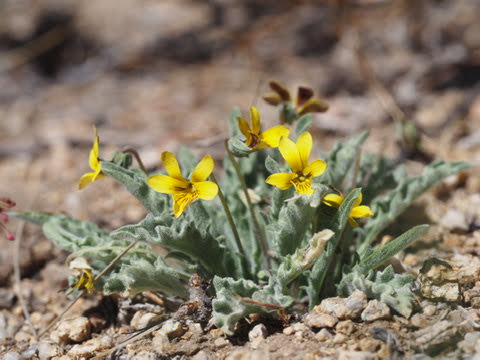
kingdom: Plantae
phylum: Tracheophyta
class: Magnoliopsida
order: Malpighiales
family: Violaceae
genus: Viola
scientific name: Viola pinetorum
